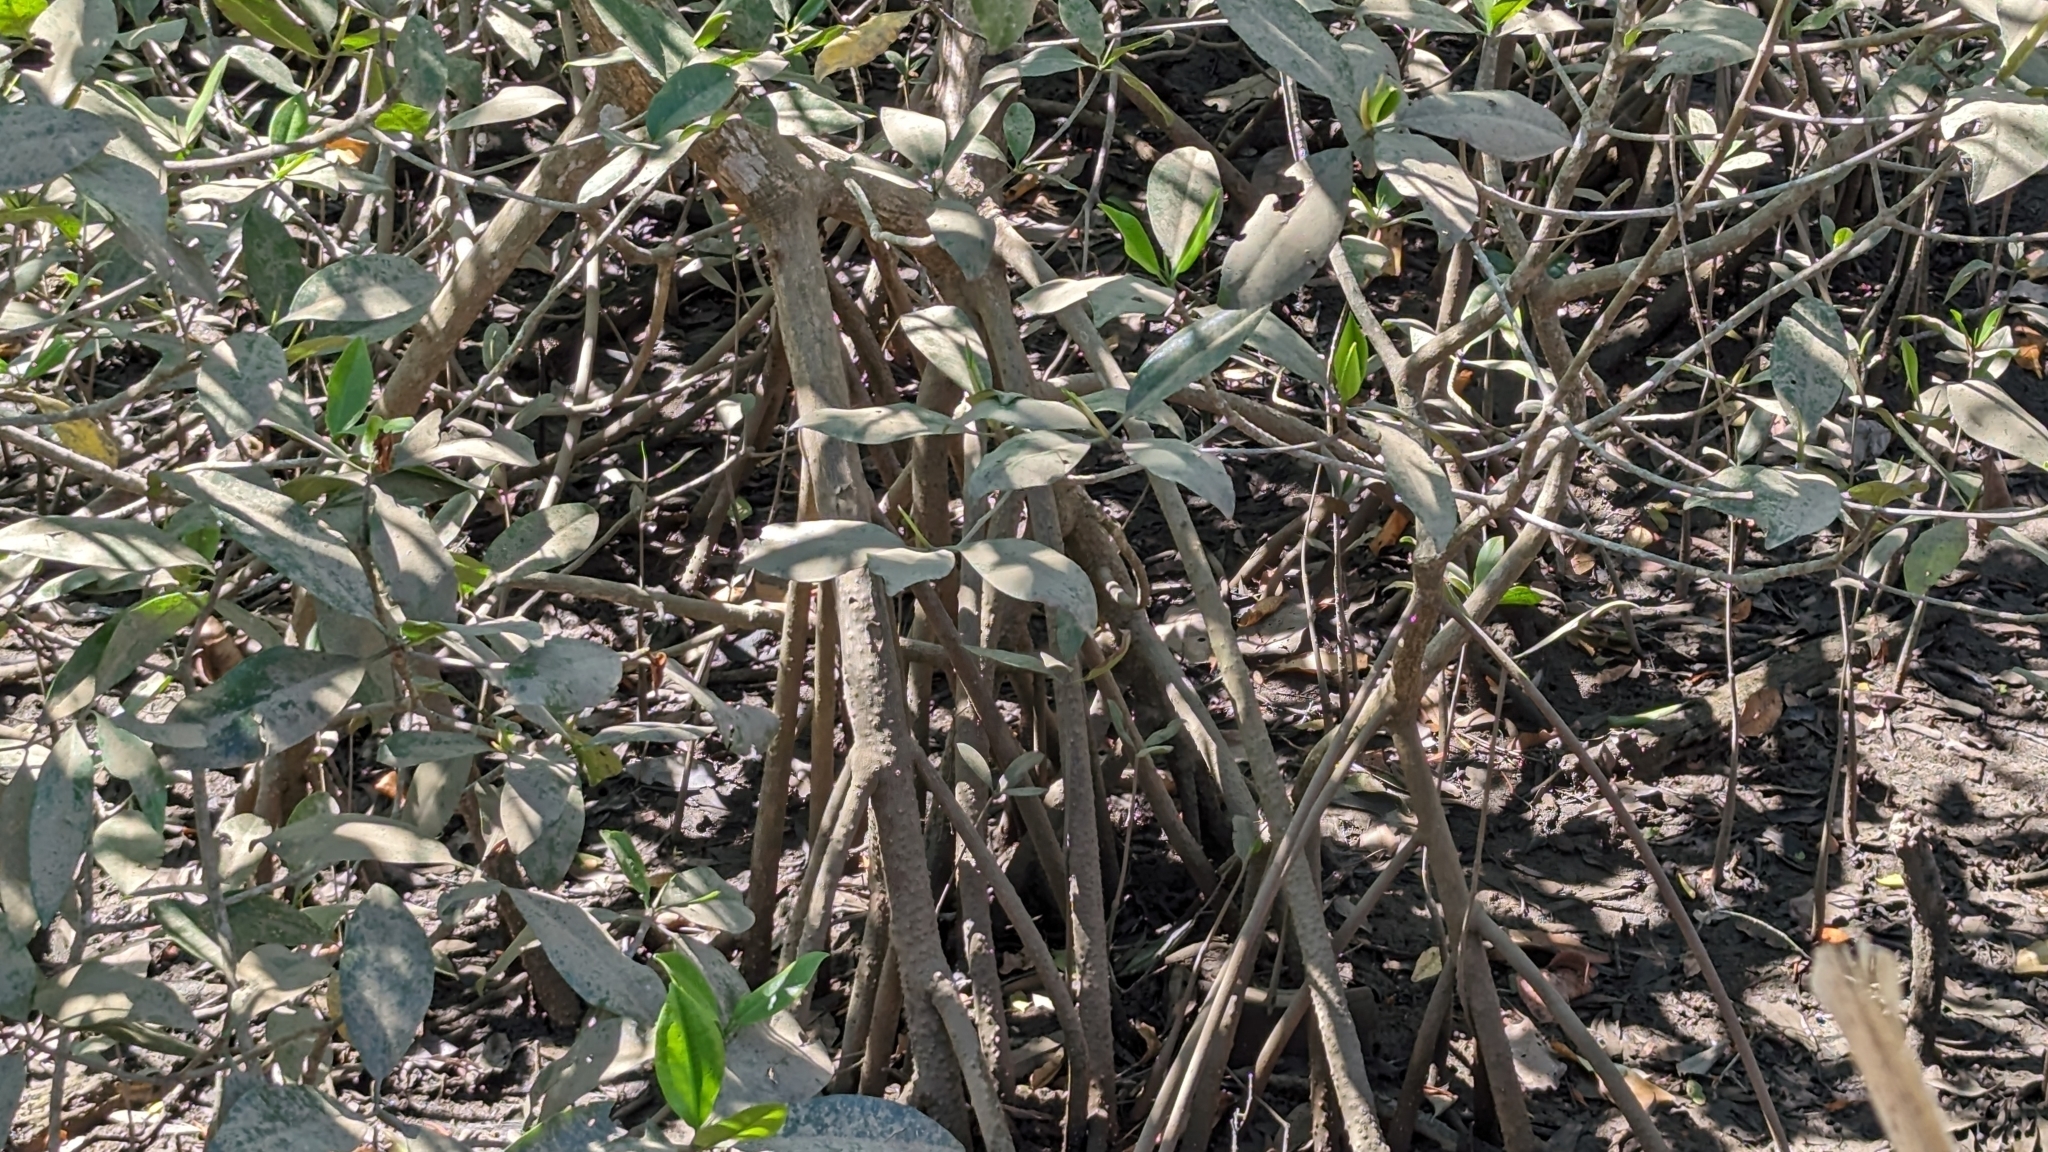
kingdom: Plantae
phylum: Tracheophyta
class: Magnoliopsida
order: Malpighiales
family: Rhizophoraceae
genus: Rhizophora
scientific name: Rhizophora mangle
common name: Red mangrove
